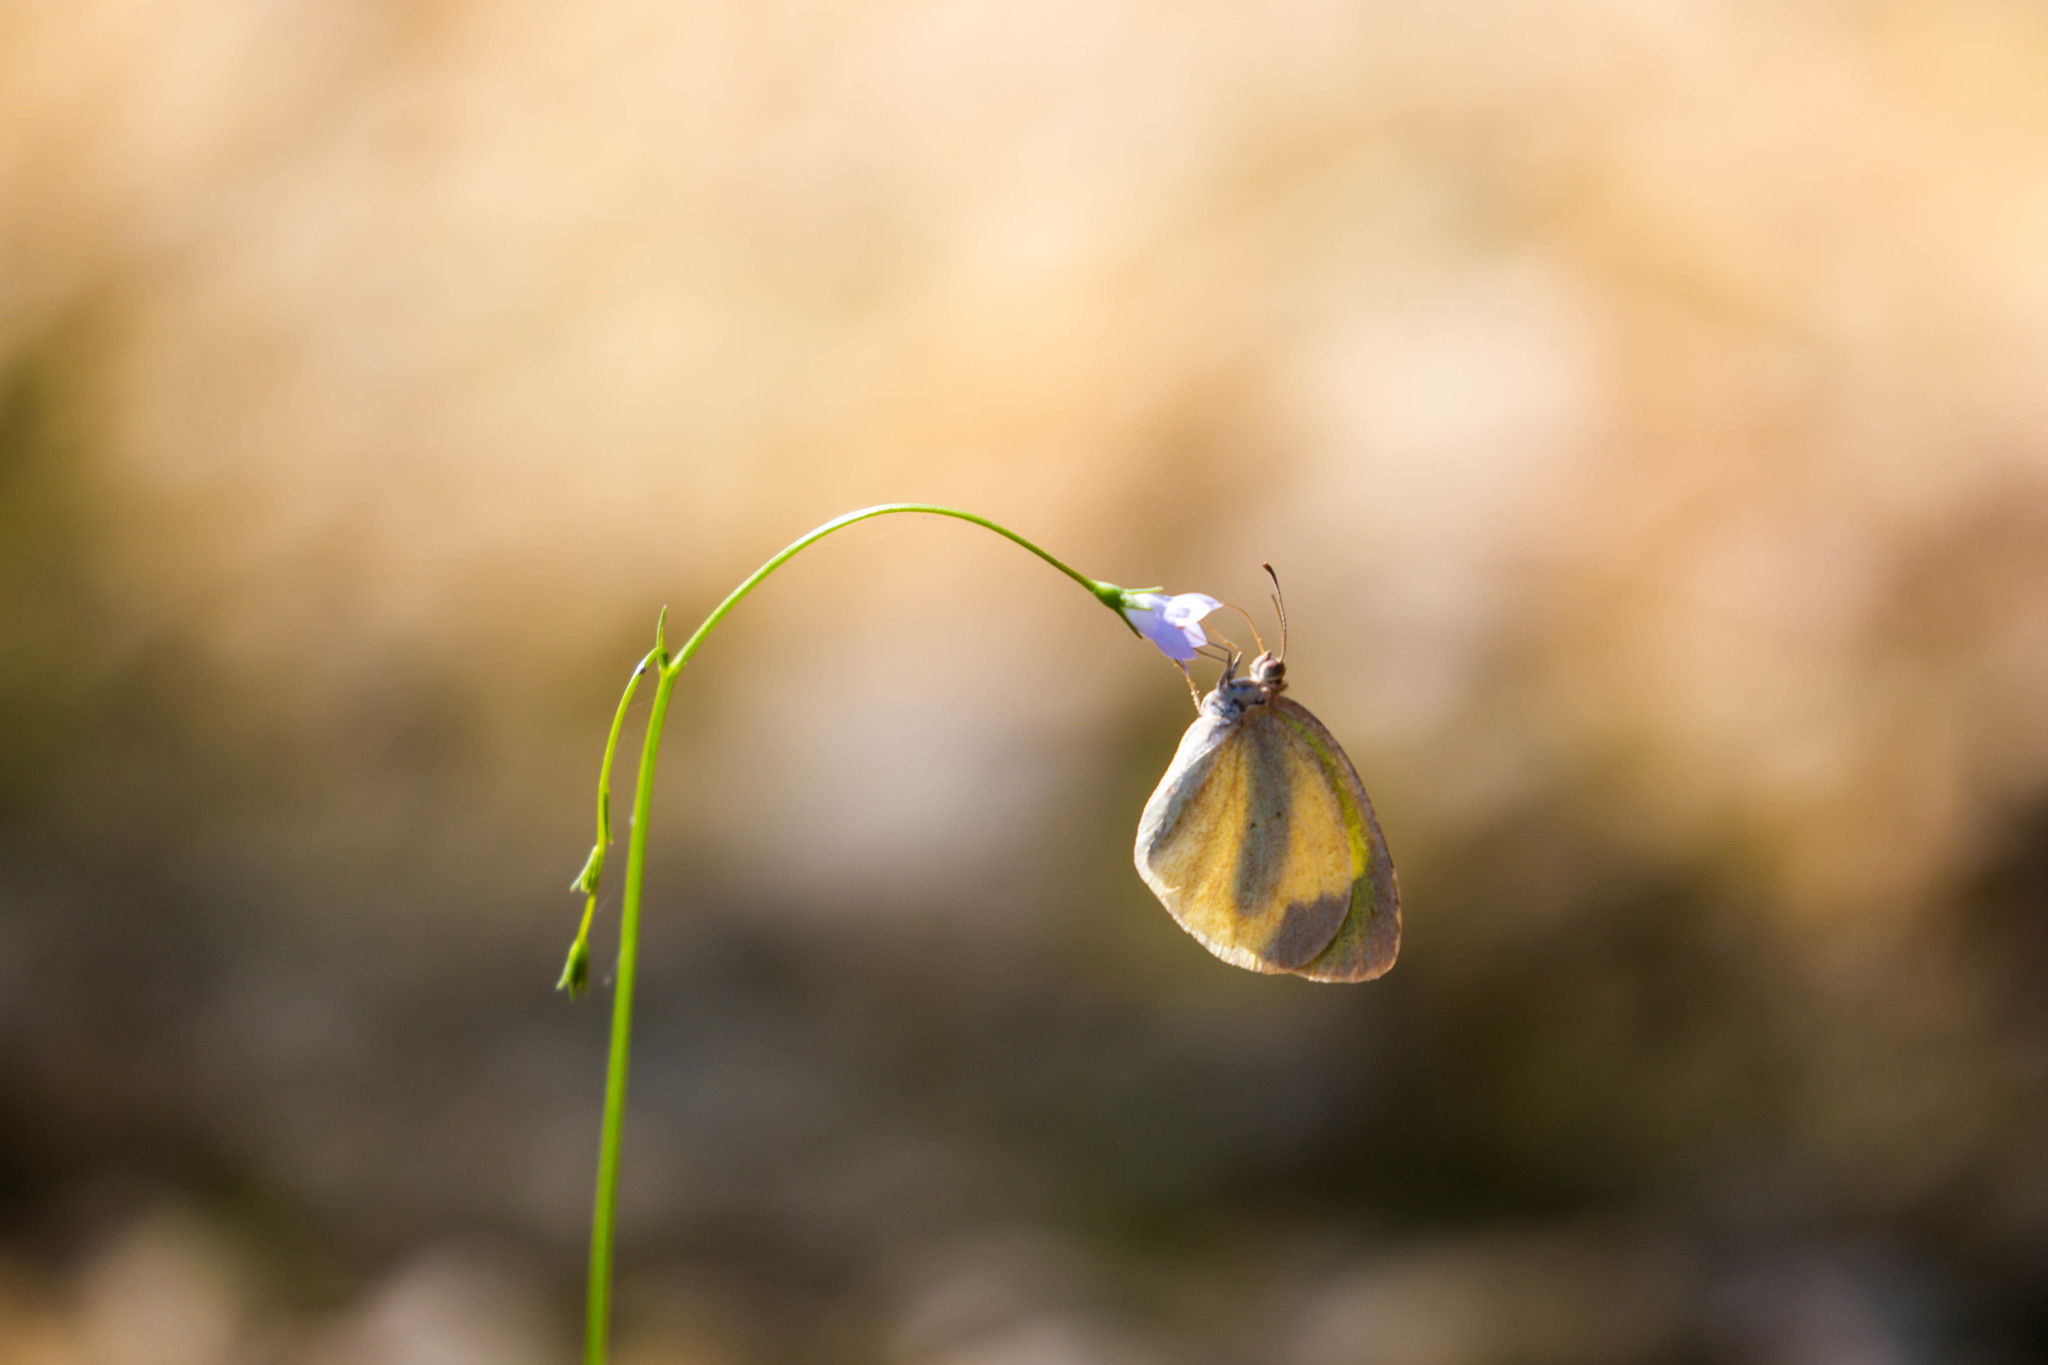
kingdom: Animalia
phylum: Arthropoda
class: Insecta
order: Lepidoptera
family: Pieridae
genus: Eurema
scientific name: Eurema daira
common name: Barred sulphur
